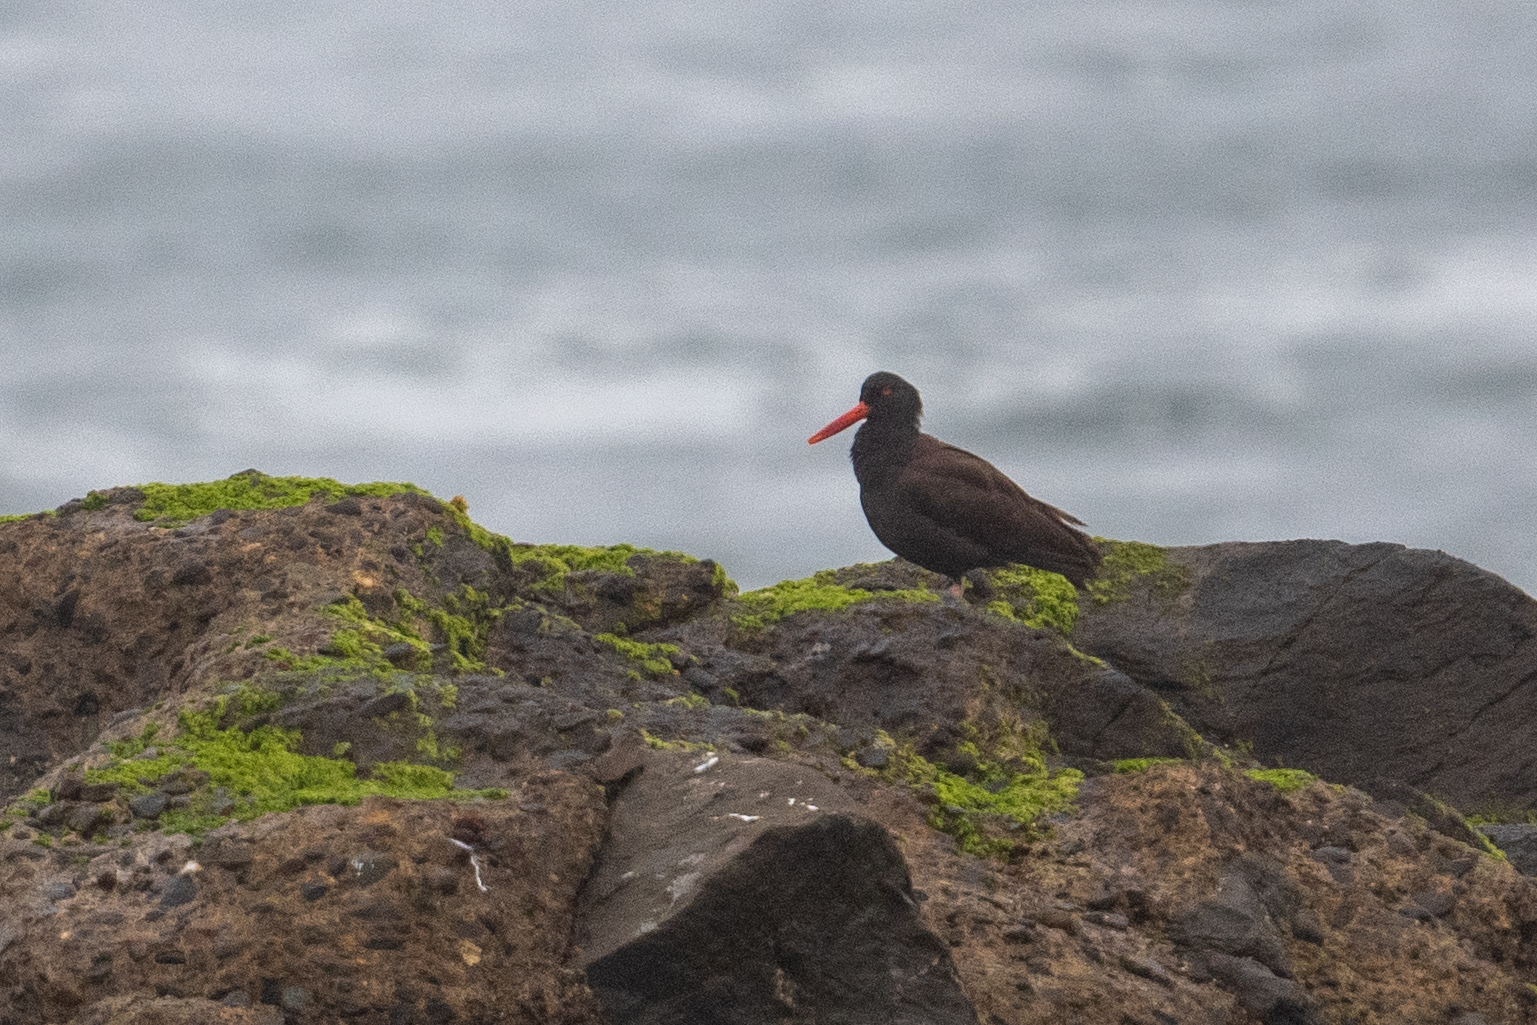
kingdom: Animalia
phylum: Chordata
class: Aves
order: Charadriiformes
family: Haematopodidae
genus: Haematopus
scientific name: Haematopus bachmani
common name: Black oystercatcher
